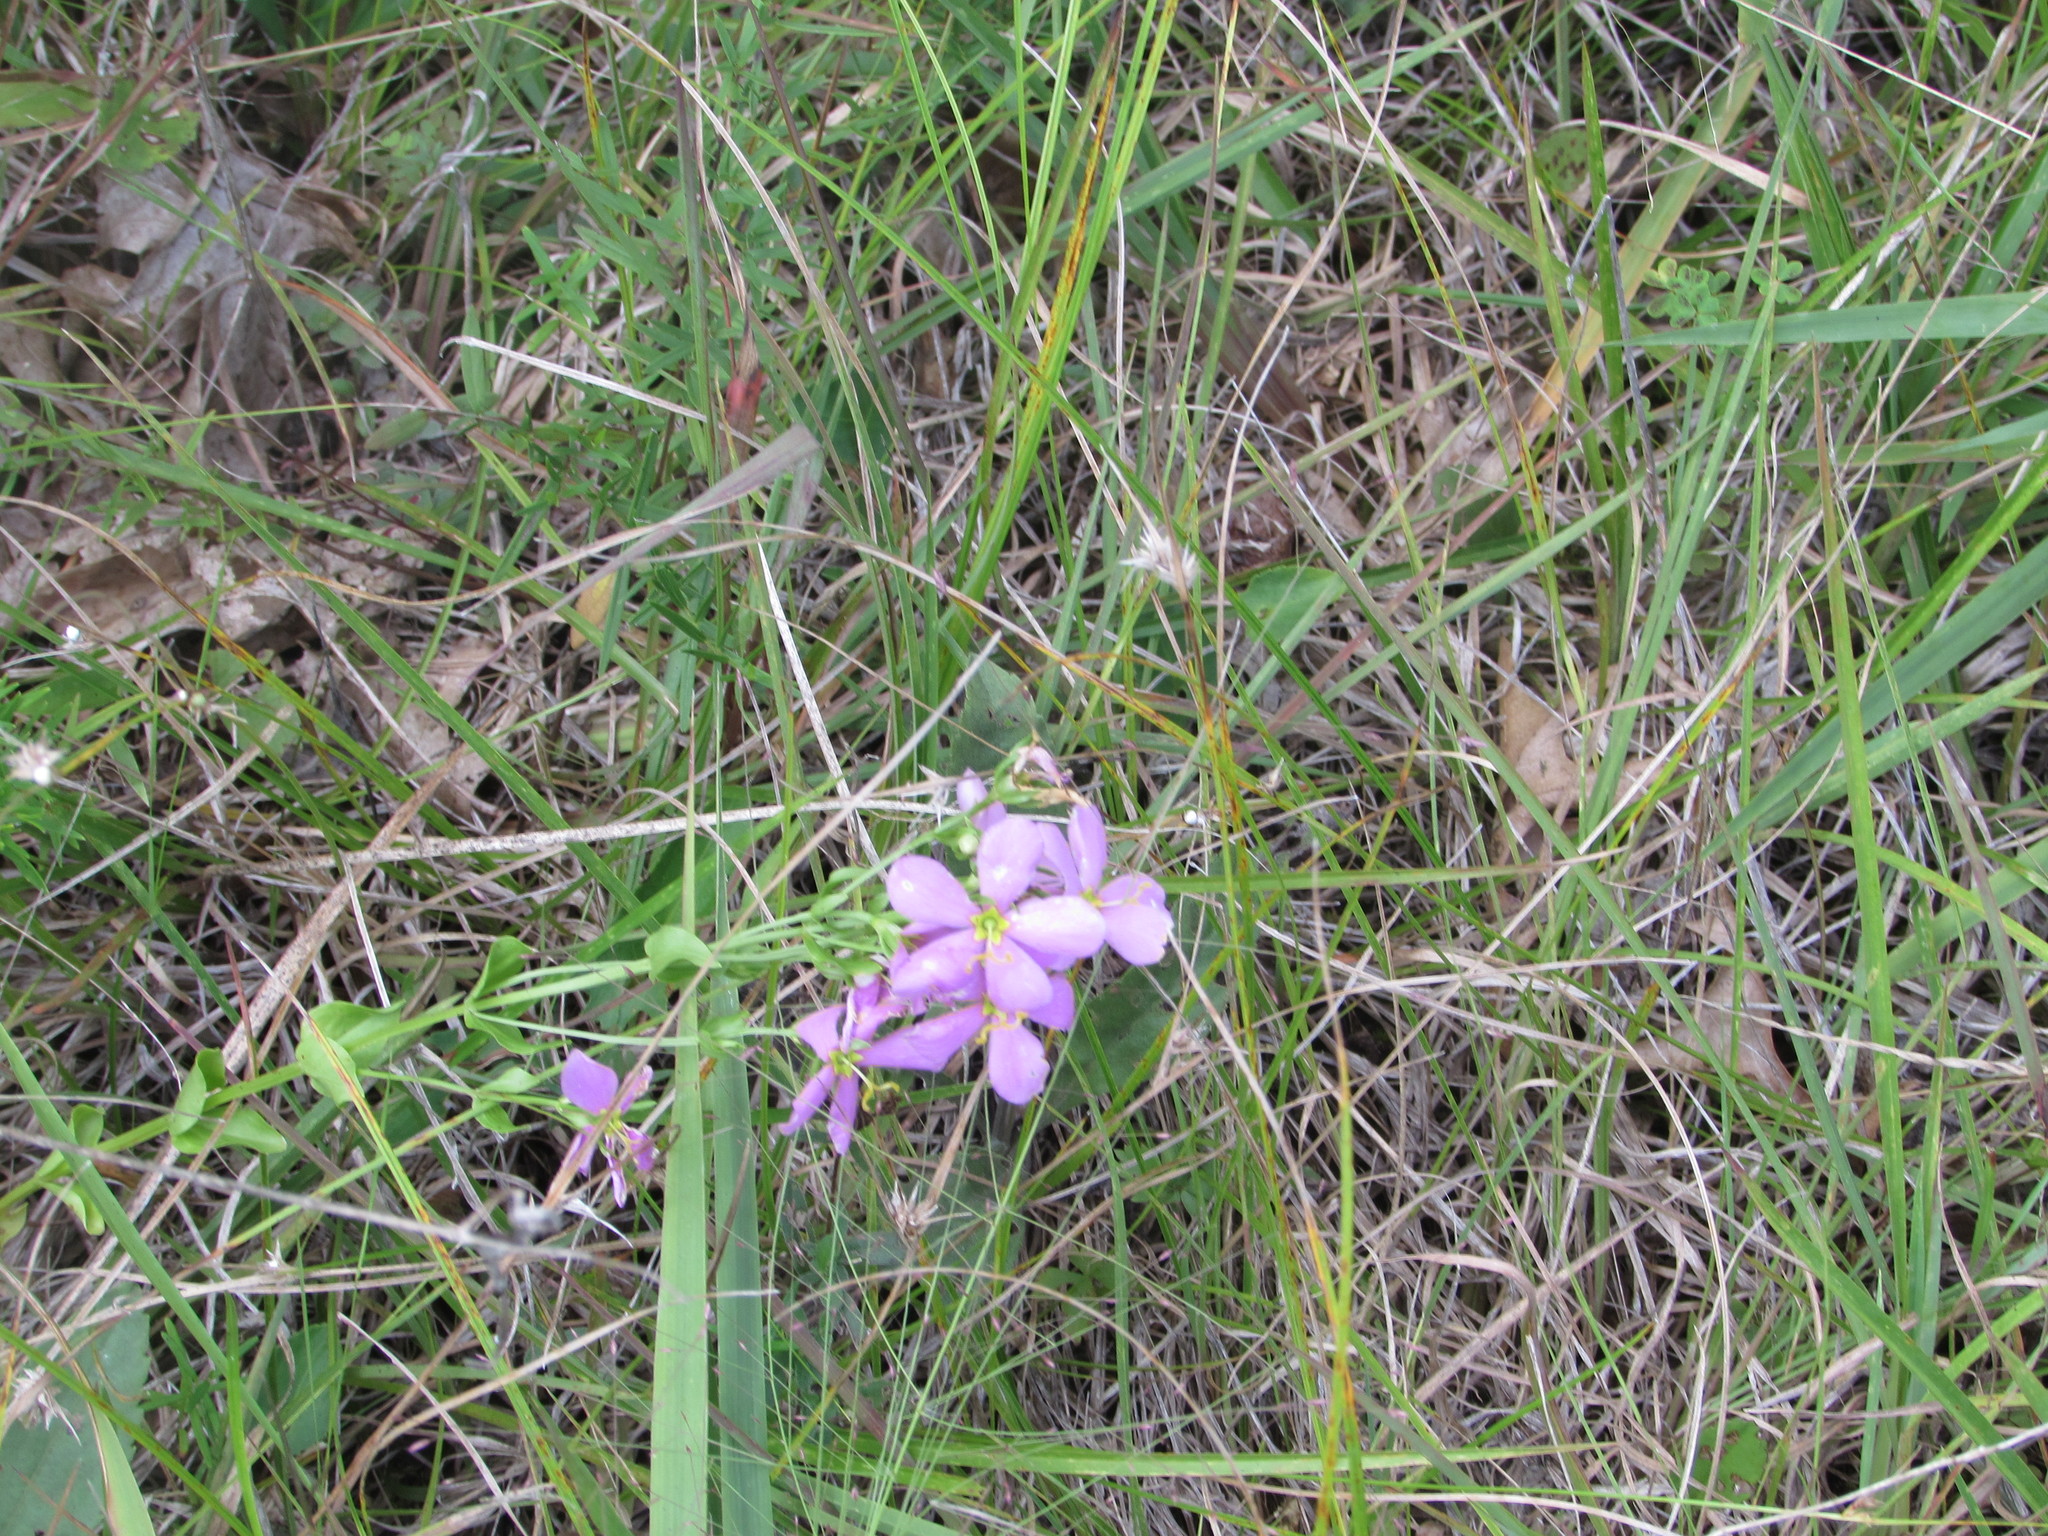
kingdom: Plantae
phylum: Tracheophyta
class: Magnoliopsida
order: Gentianales
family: Gentianaceae
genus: Sabatia
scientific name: Sabatia angularis
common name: Rose-pink
